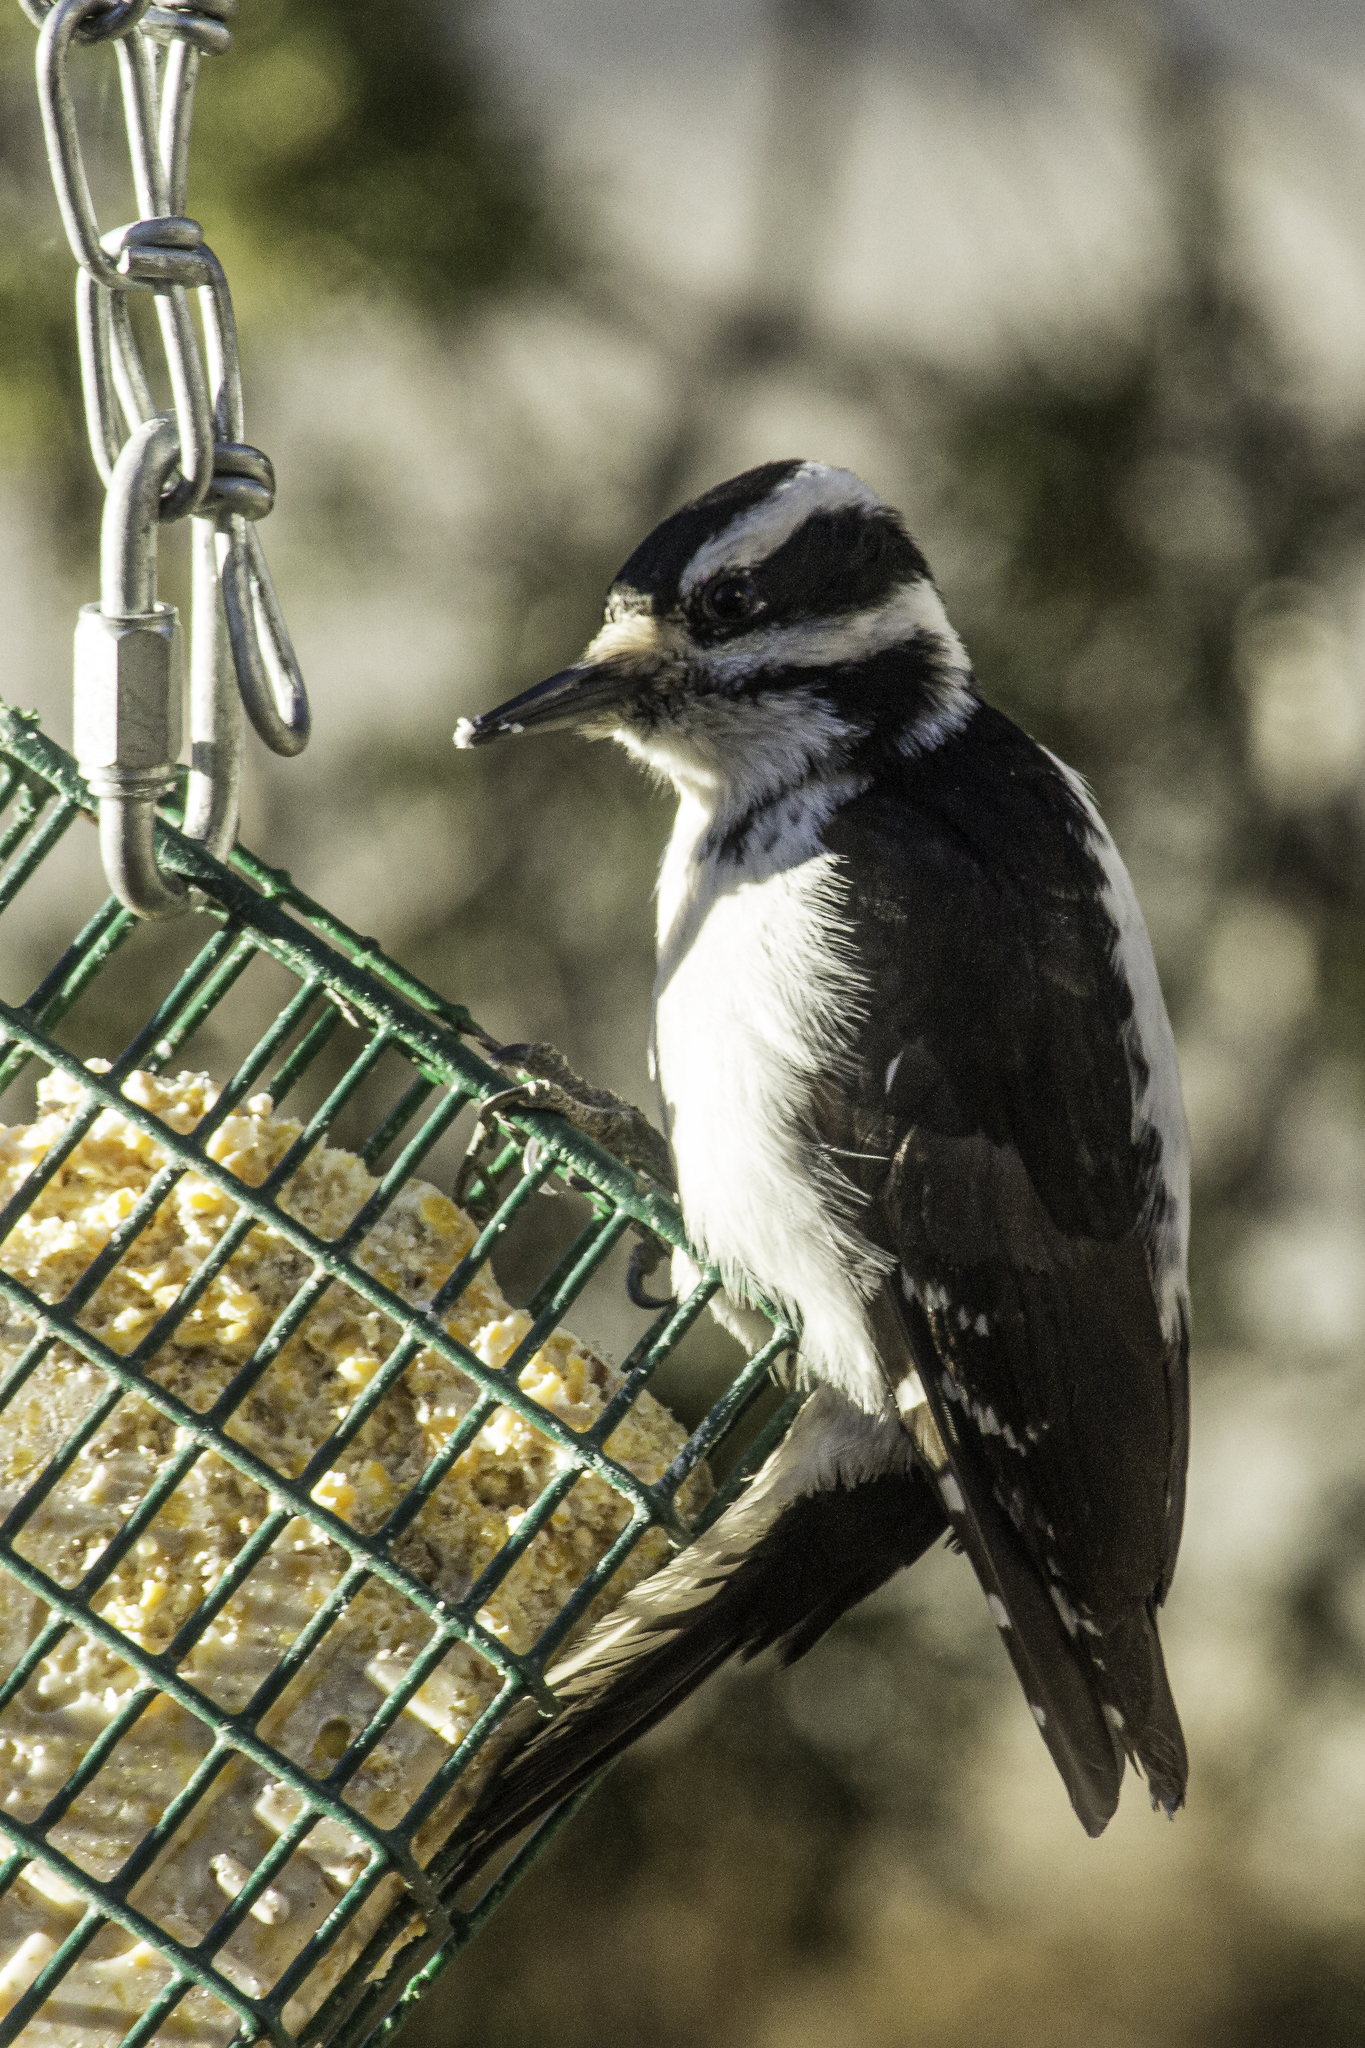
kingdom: Animalia
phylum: Chordata
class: Aves
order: Piciformes
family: Picidae
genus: Leuconotopicus
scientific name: Leuconotopicus villosus
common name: Hairy woodpecker
